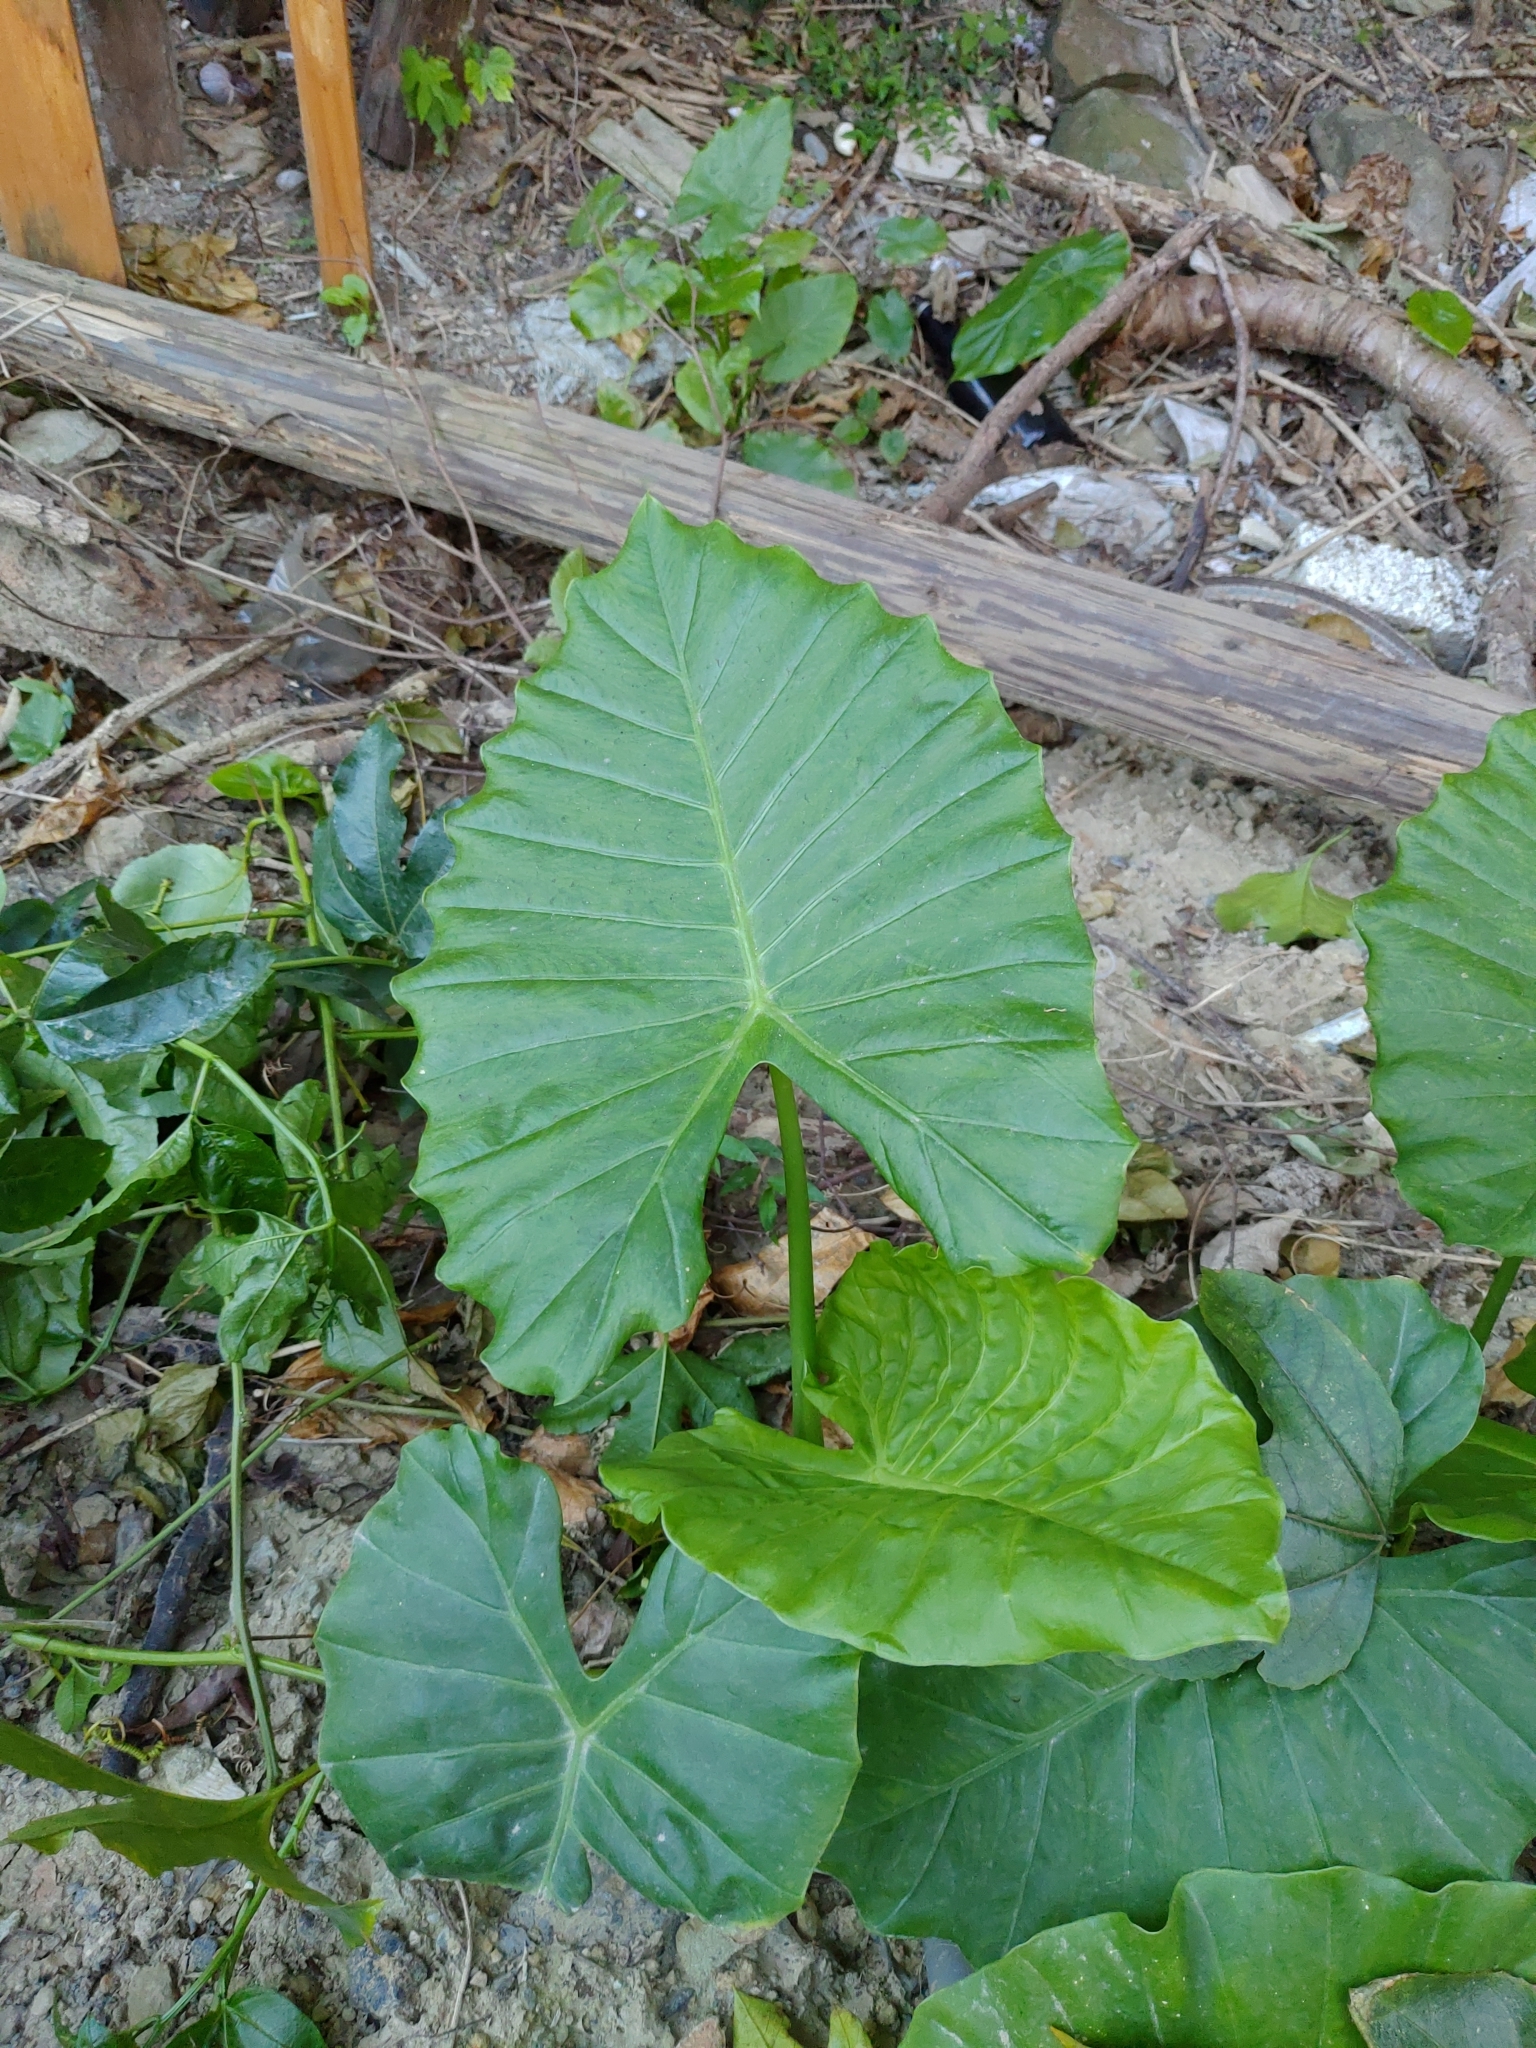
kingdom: Plantae
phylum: Tracheophyta
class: Liliopsida
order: Alismatales
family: Araceae
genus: Alocasia
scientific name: Alocasia odora
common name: Asian taro
